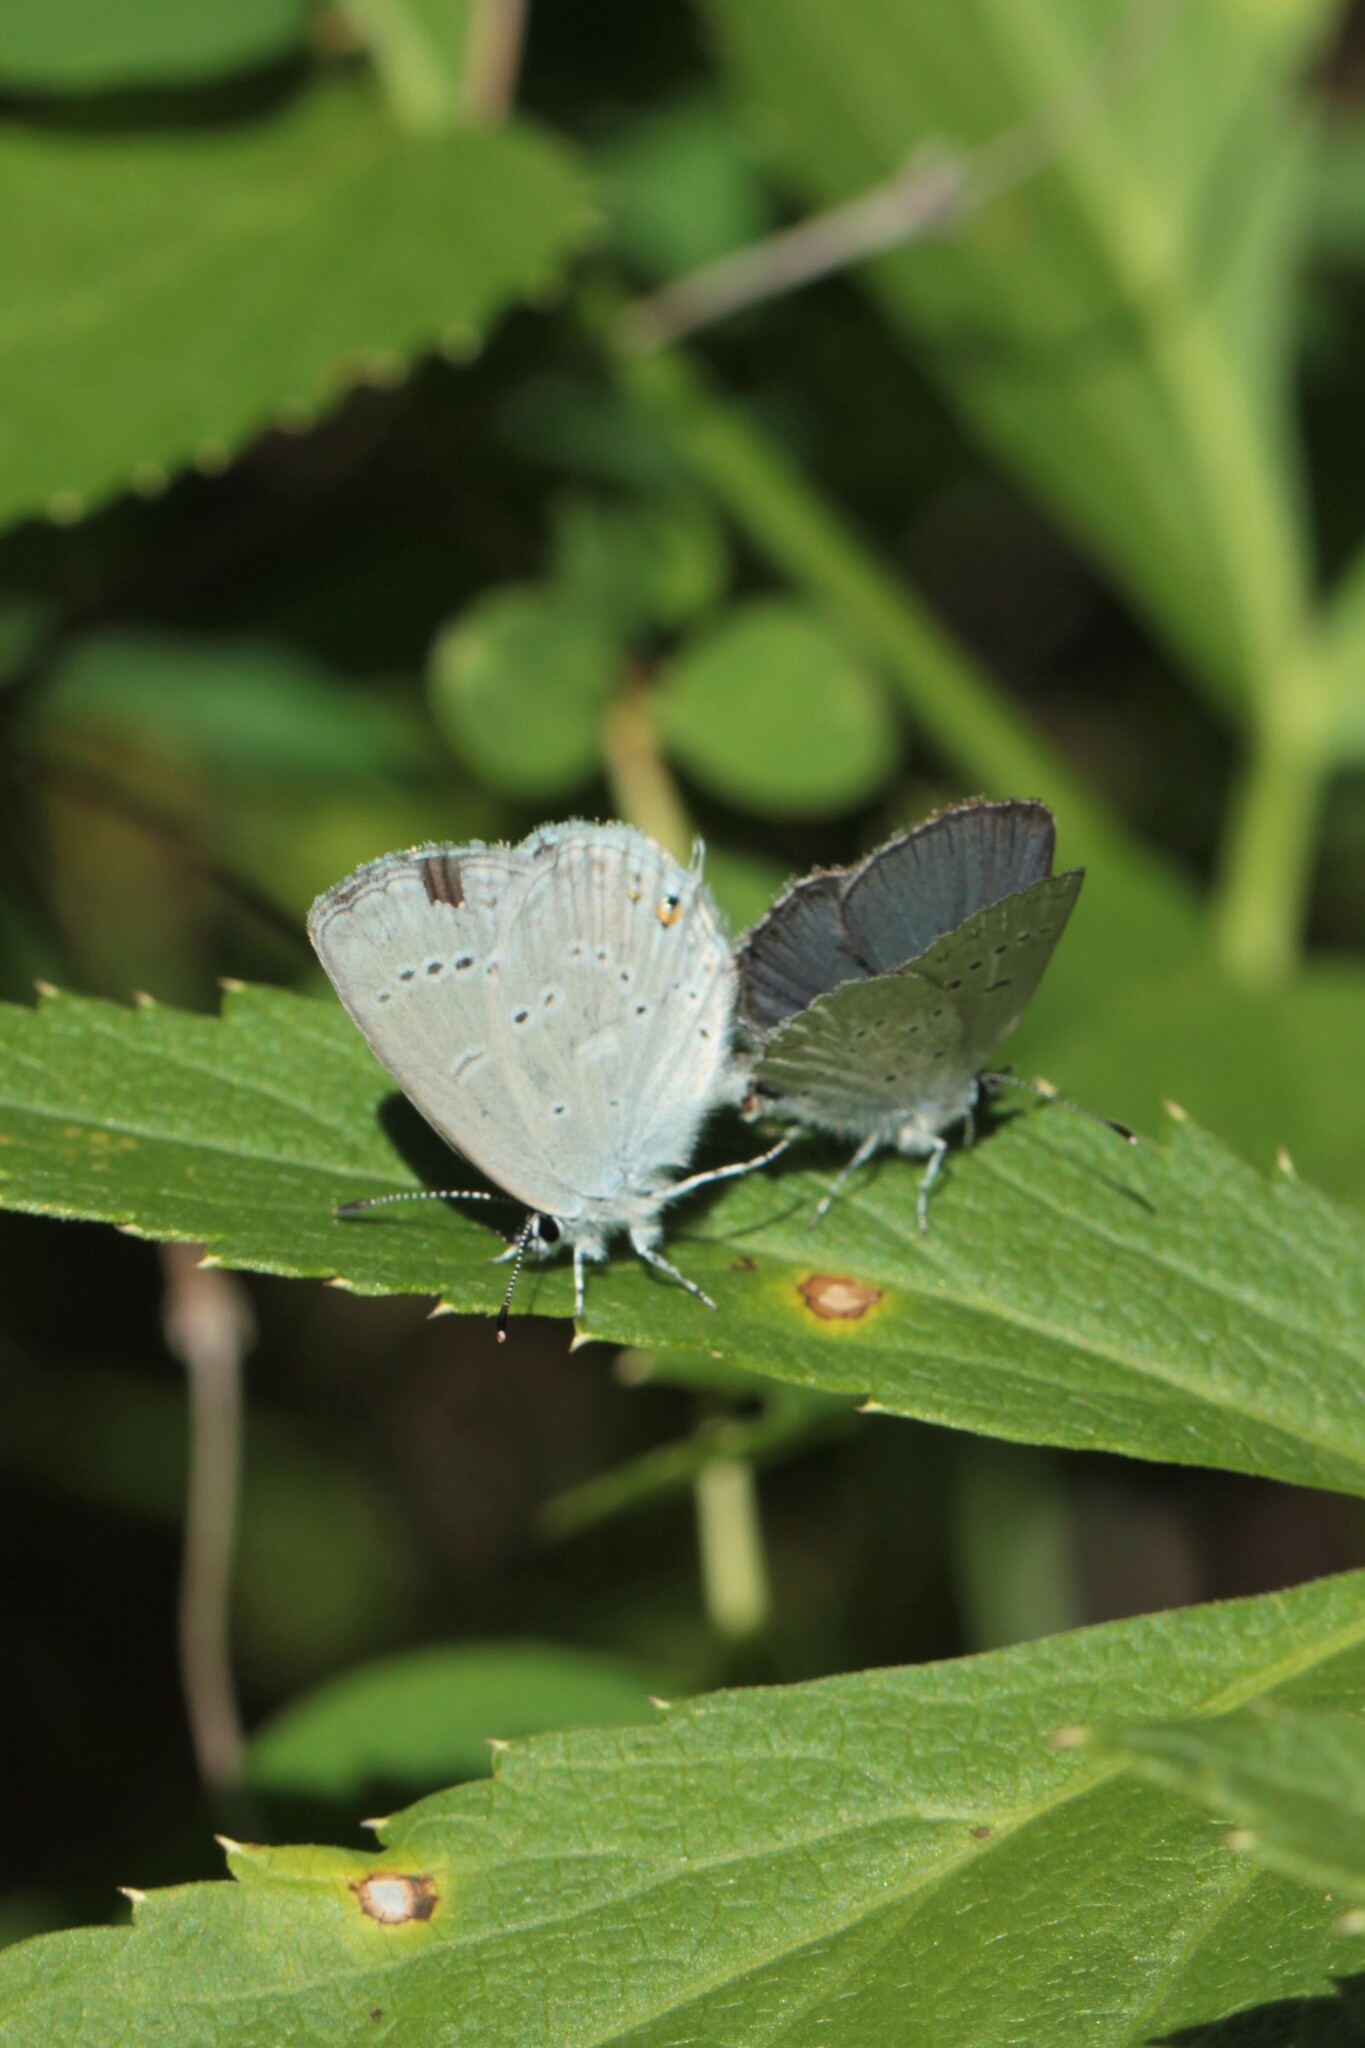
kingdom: Animalia
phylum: Arthropoda
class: Insecta
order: Lepidoptera
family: Lycaenidae
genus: Elkalyce
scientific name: Elkalyce amyntula
